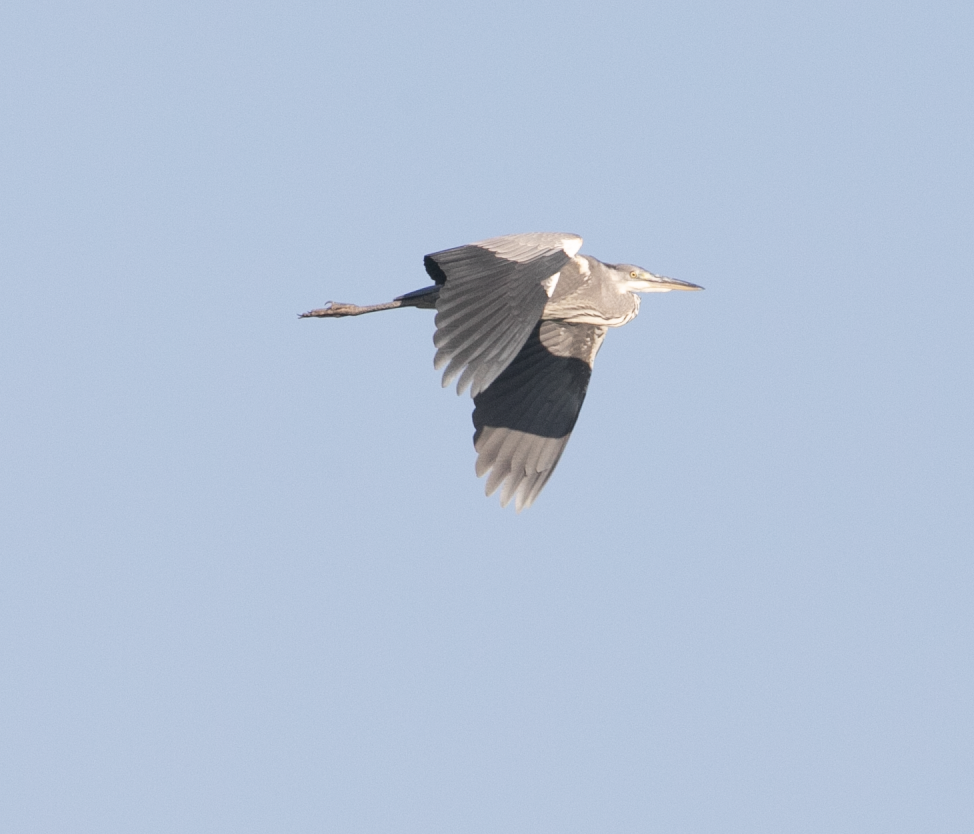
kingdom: Animalia
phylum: Chordata
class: Aves
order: Pelecaniformes
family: Ardeidae
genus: Ardea
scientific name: Ardea cinerea
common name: Grey heron
